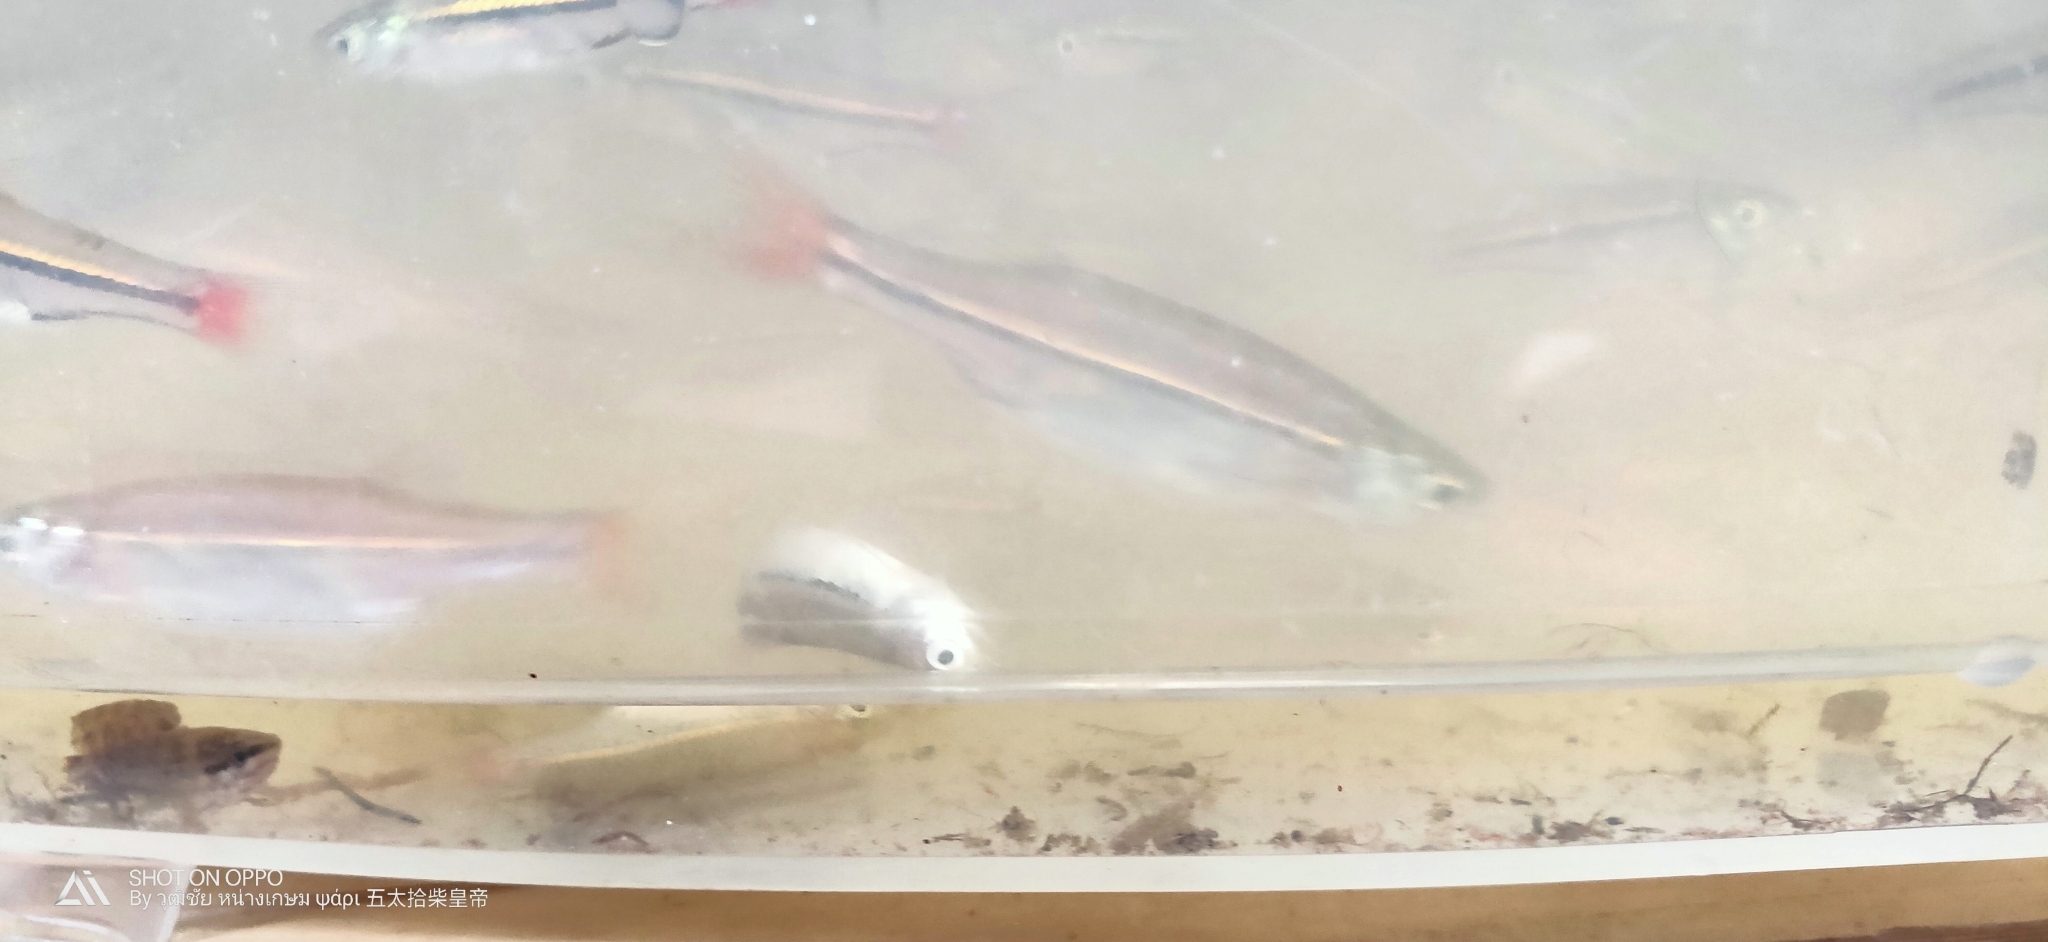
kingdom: Animalia
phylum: Chordata
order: Cypriniformes
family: Cyprinidae
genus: Esomus
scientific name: Esomus metallicus
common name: Striped flying barb
